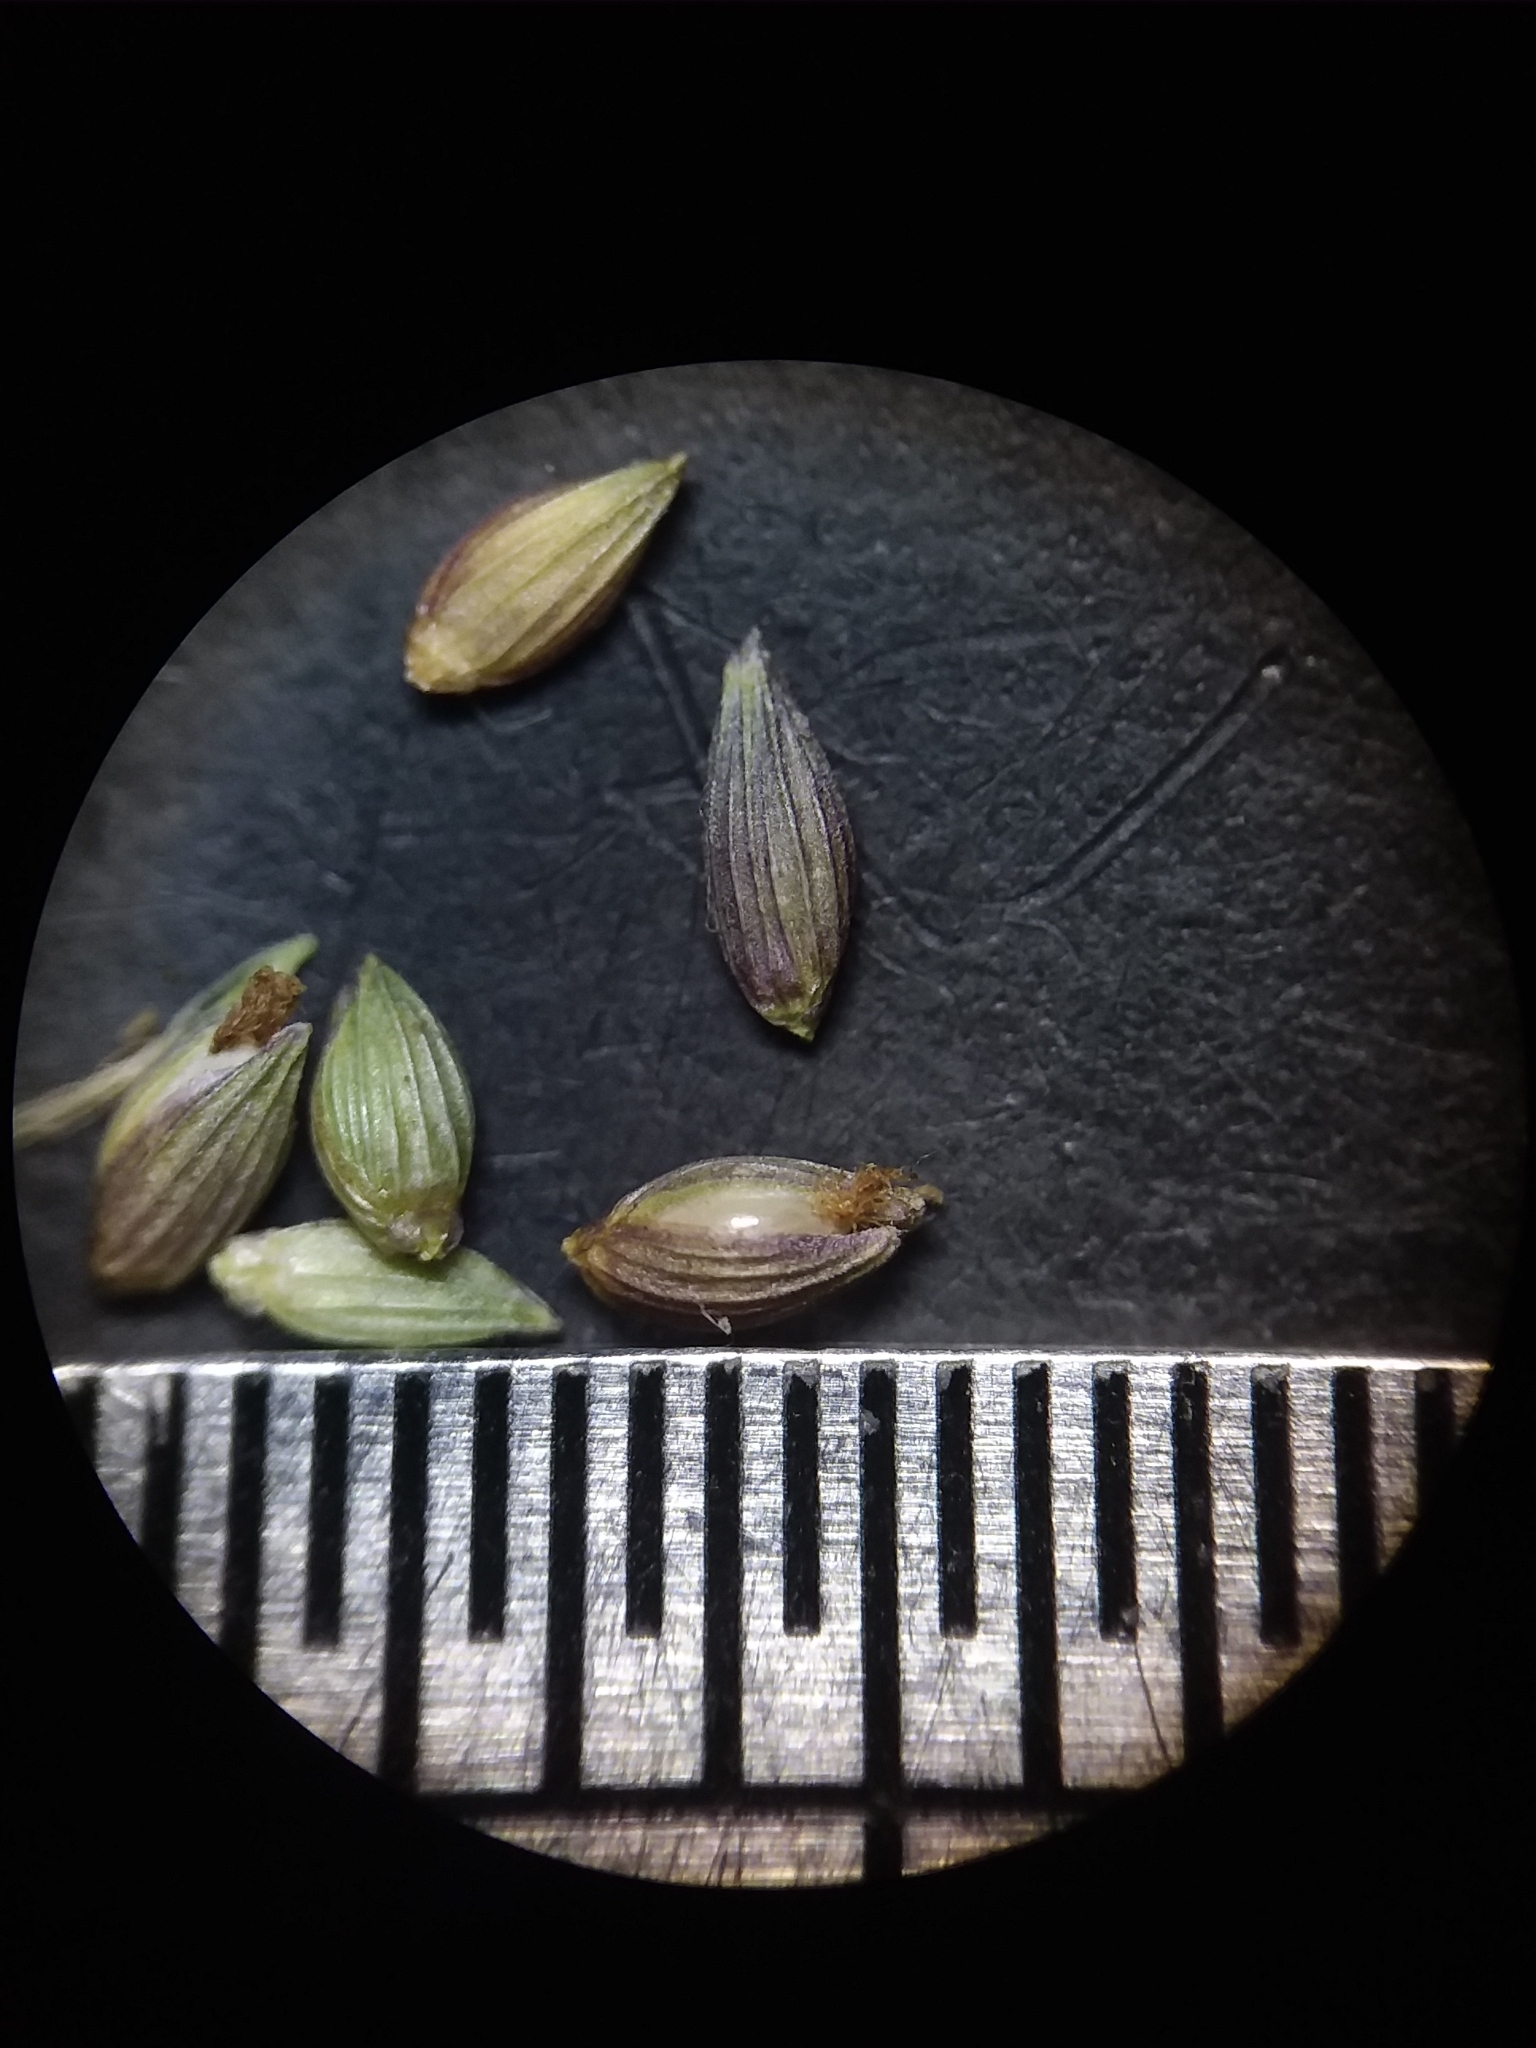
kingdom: Plantae
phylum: Tracheophyta
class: Liliopsida
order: Poales
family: Poaceae
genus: Dichanthelium
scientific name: Dichanthelium scabriusculum
